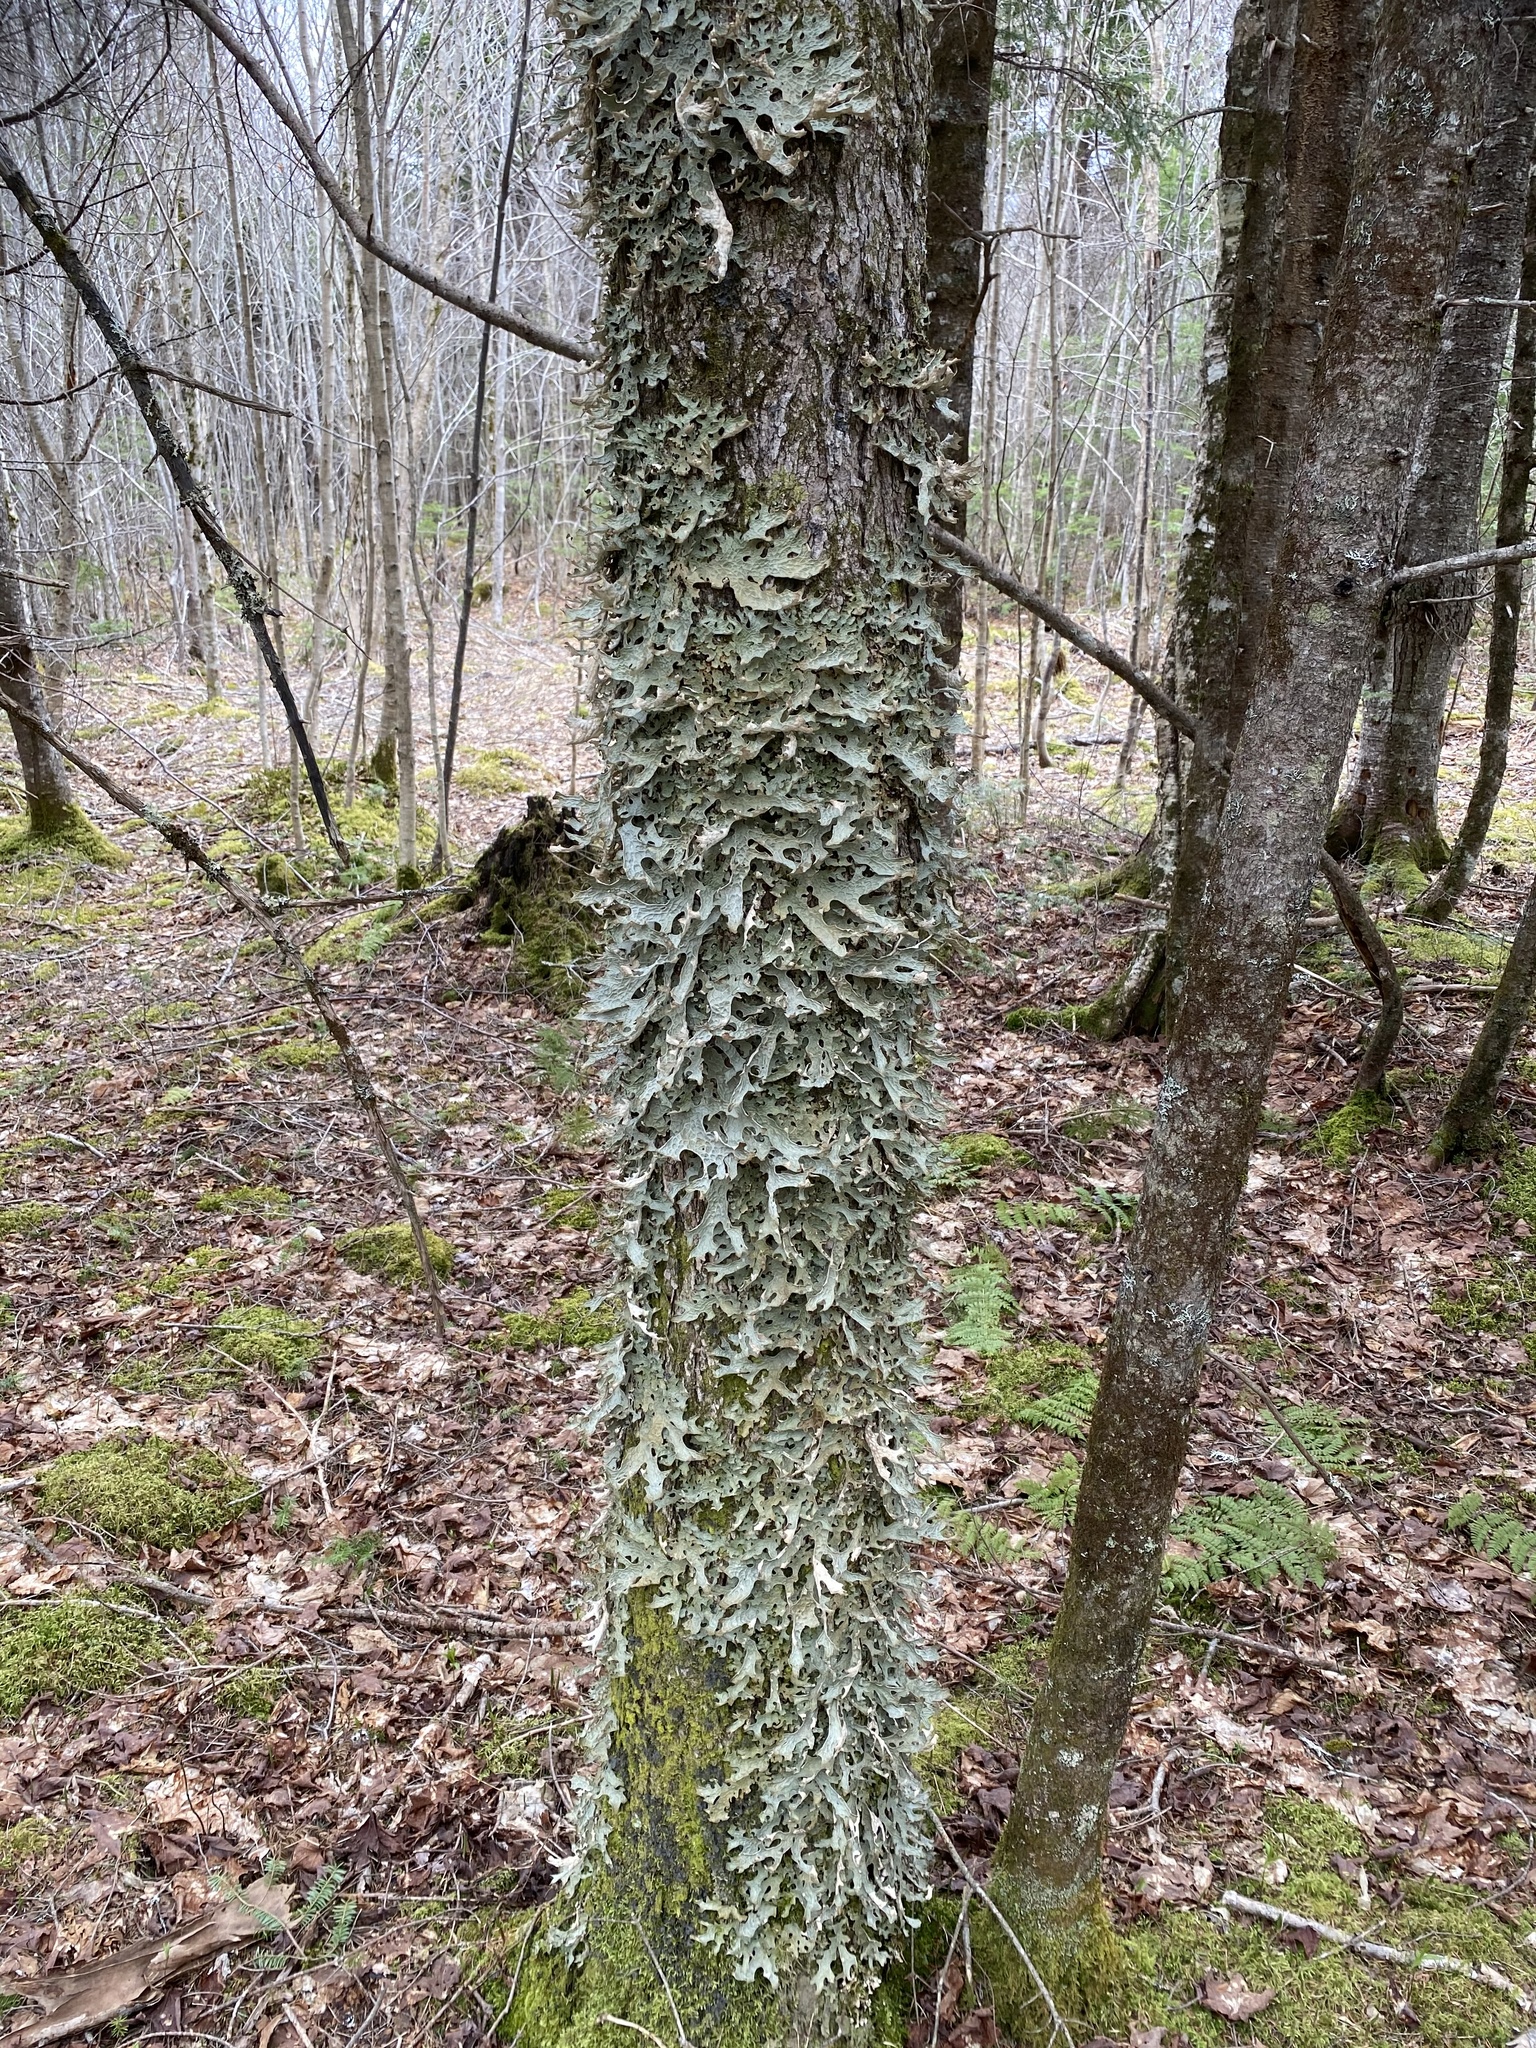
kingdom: Fungi
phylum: Ascomycota
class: Lecanoromycetes
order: Peltigerales
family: Lobariaceae
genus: Lobaria
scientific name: Lobaria pulmonaria
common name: Lungwort
